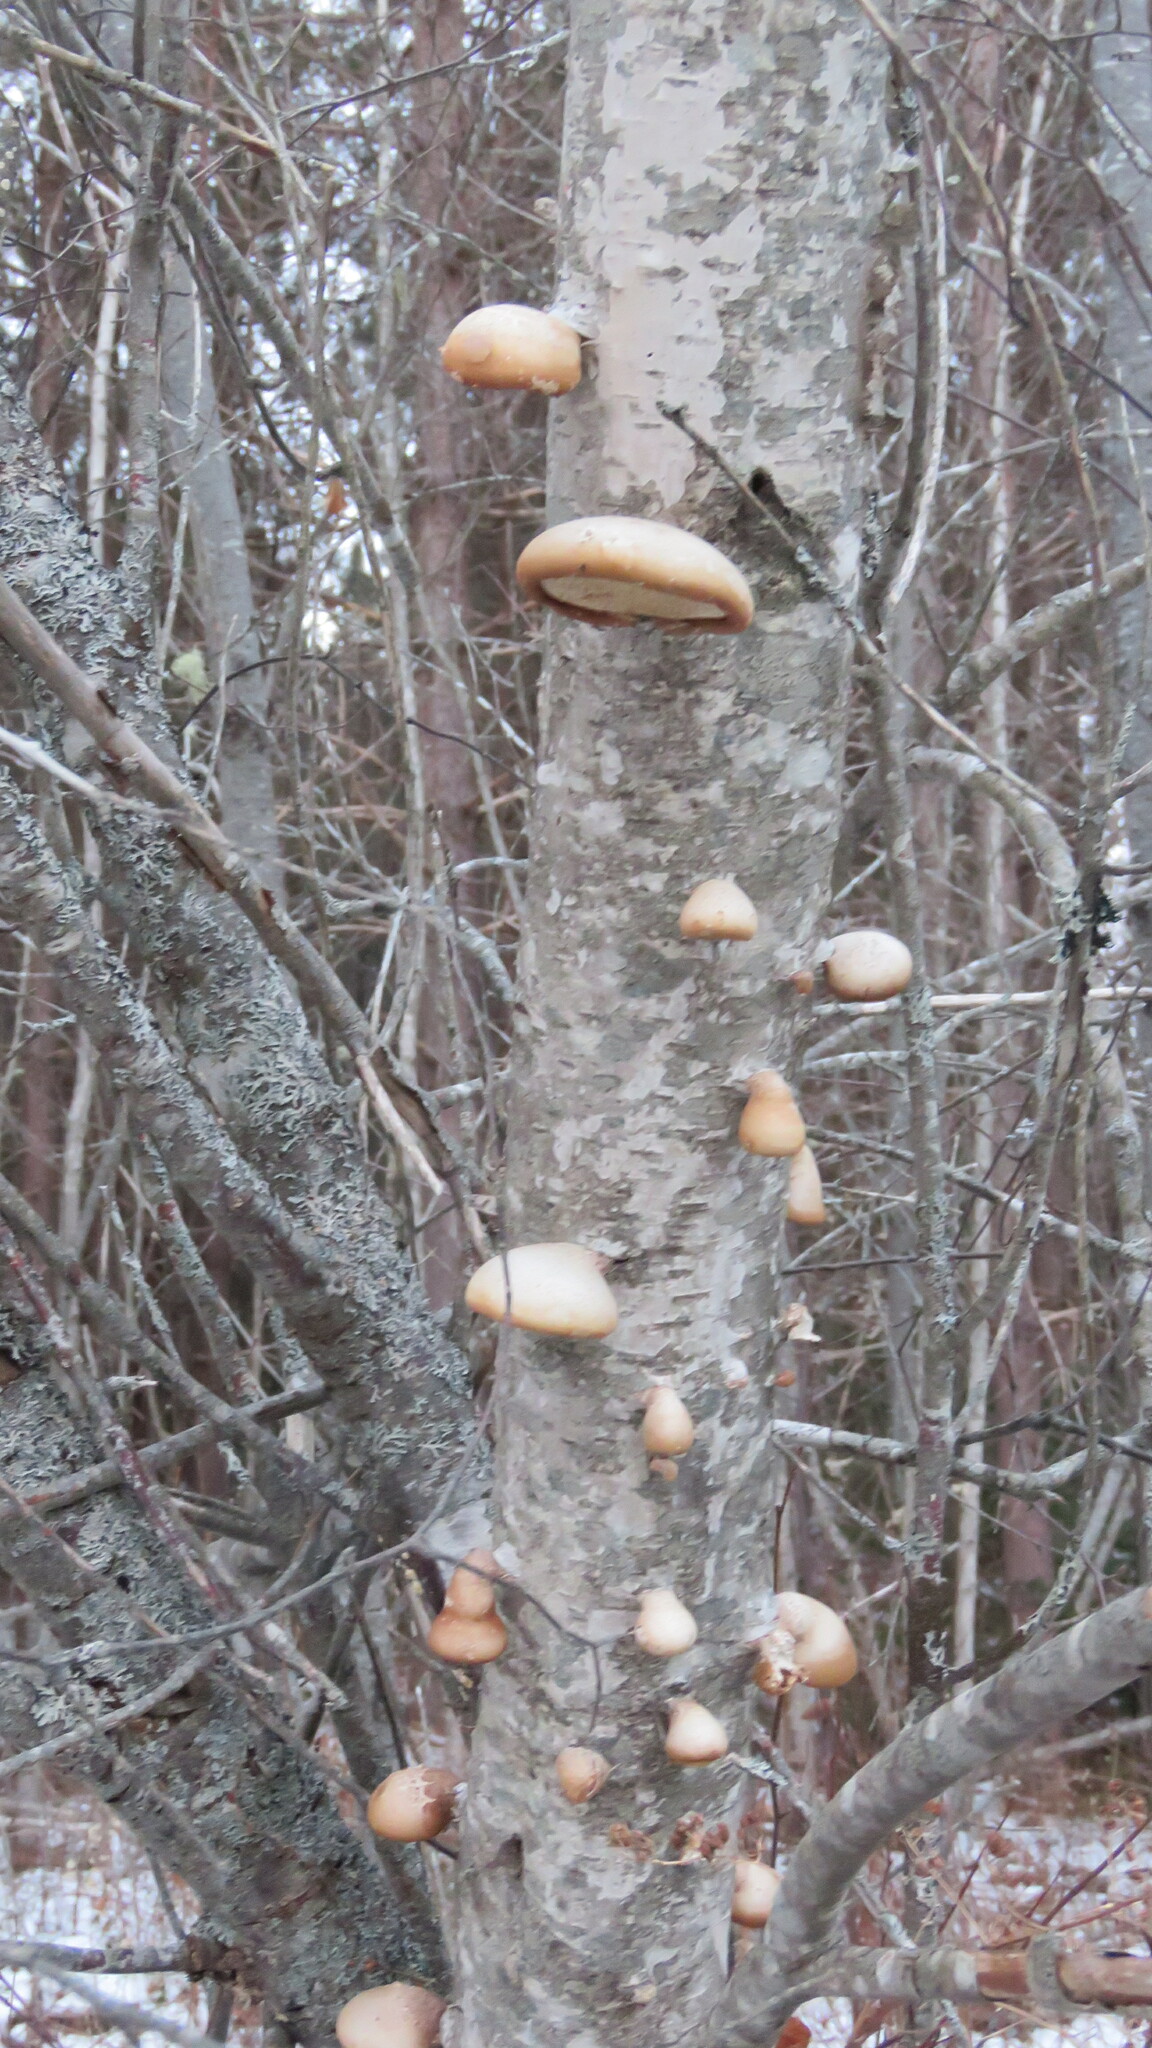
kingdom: Fungi
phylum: Basidiomycota
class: Agaricomycetes
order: Polyporales
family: Fomitopsidaceae
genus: Fomitopsis
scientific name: Fomitopsis betulina
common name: Birch polypore
